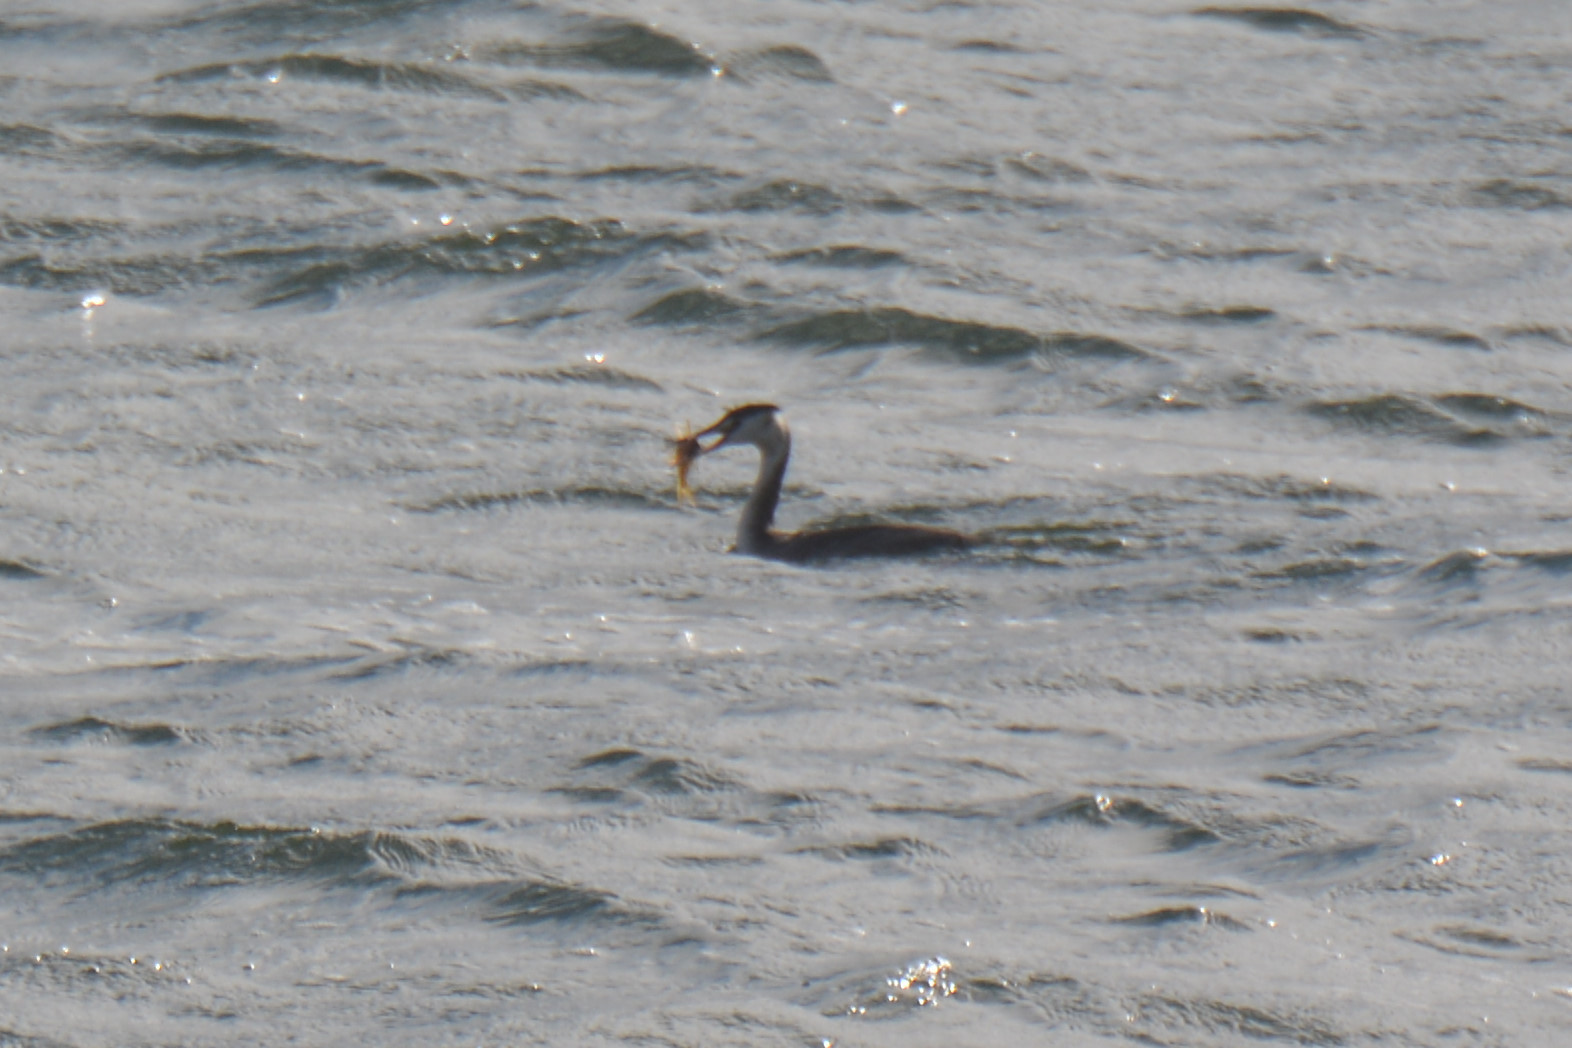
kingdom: Animalia
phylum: Chordata
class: Aves
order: Podicipediformes
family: Podicipedidae
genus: Podiceps
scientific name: Podiceps cristatus
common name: Great crested grebe
